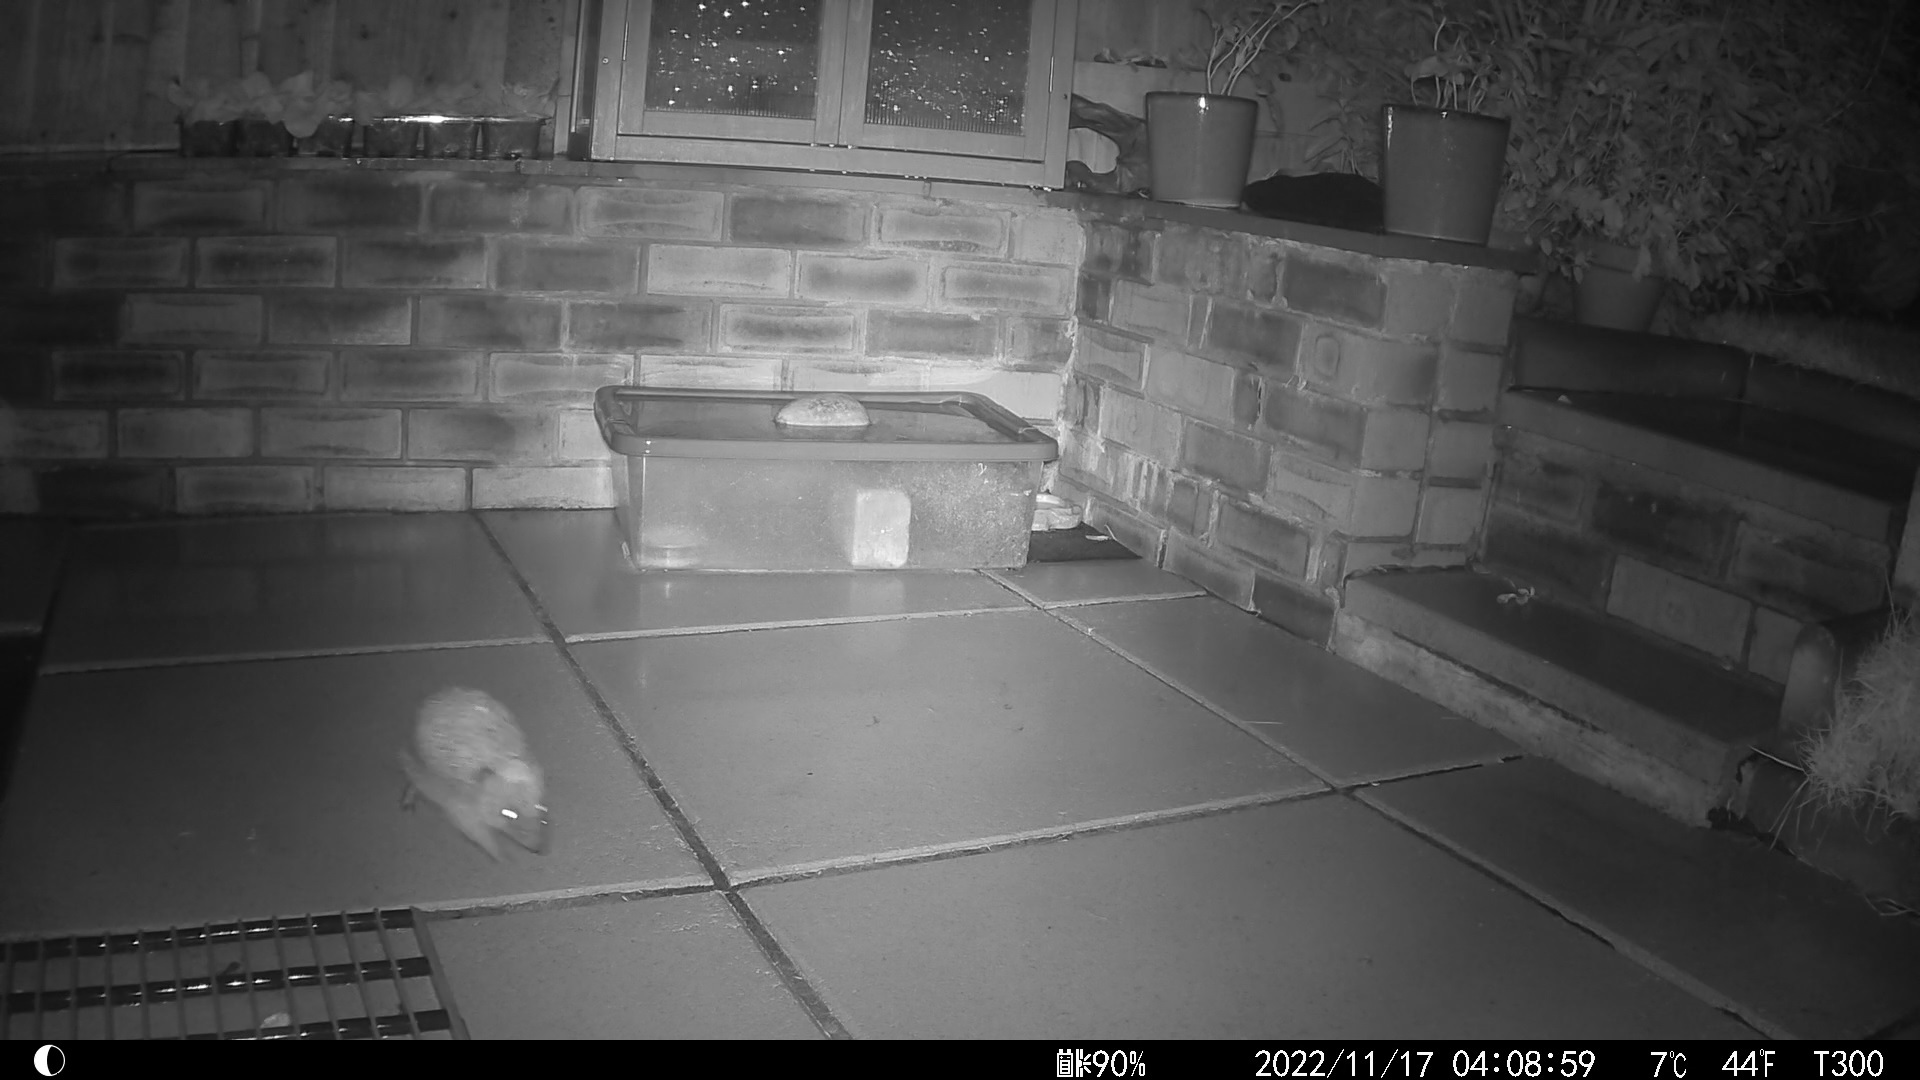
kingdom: Animalia
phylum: Chordata
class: Mammalia
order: Erinaceomorpha
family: Erinaceidae
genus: Erinaceus
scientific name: Erinaceus europaeus
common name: West european hedgehog
